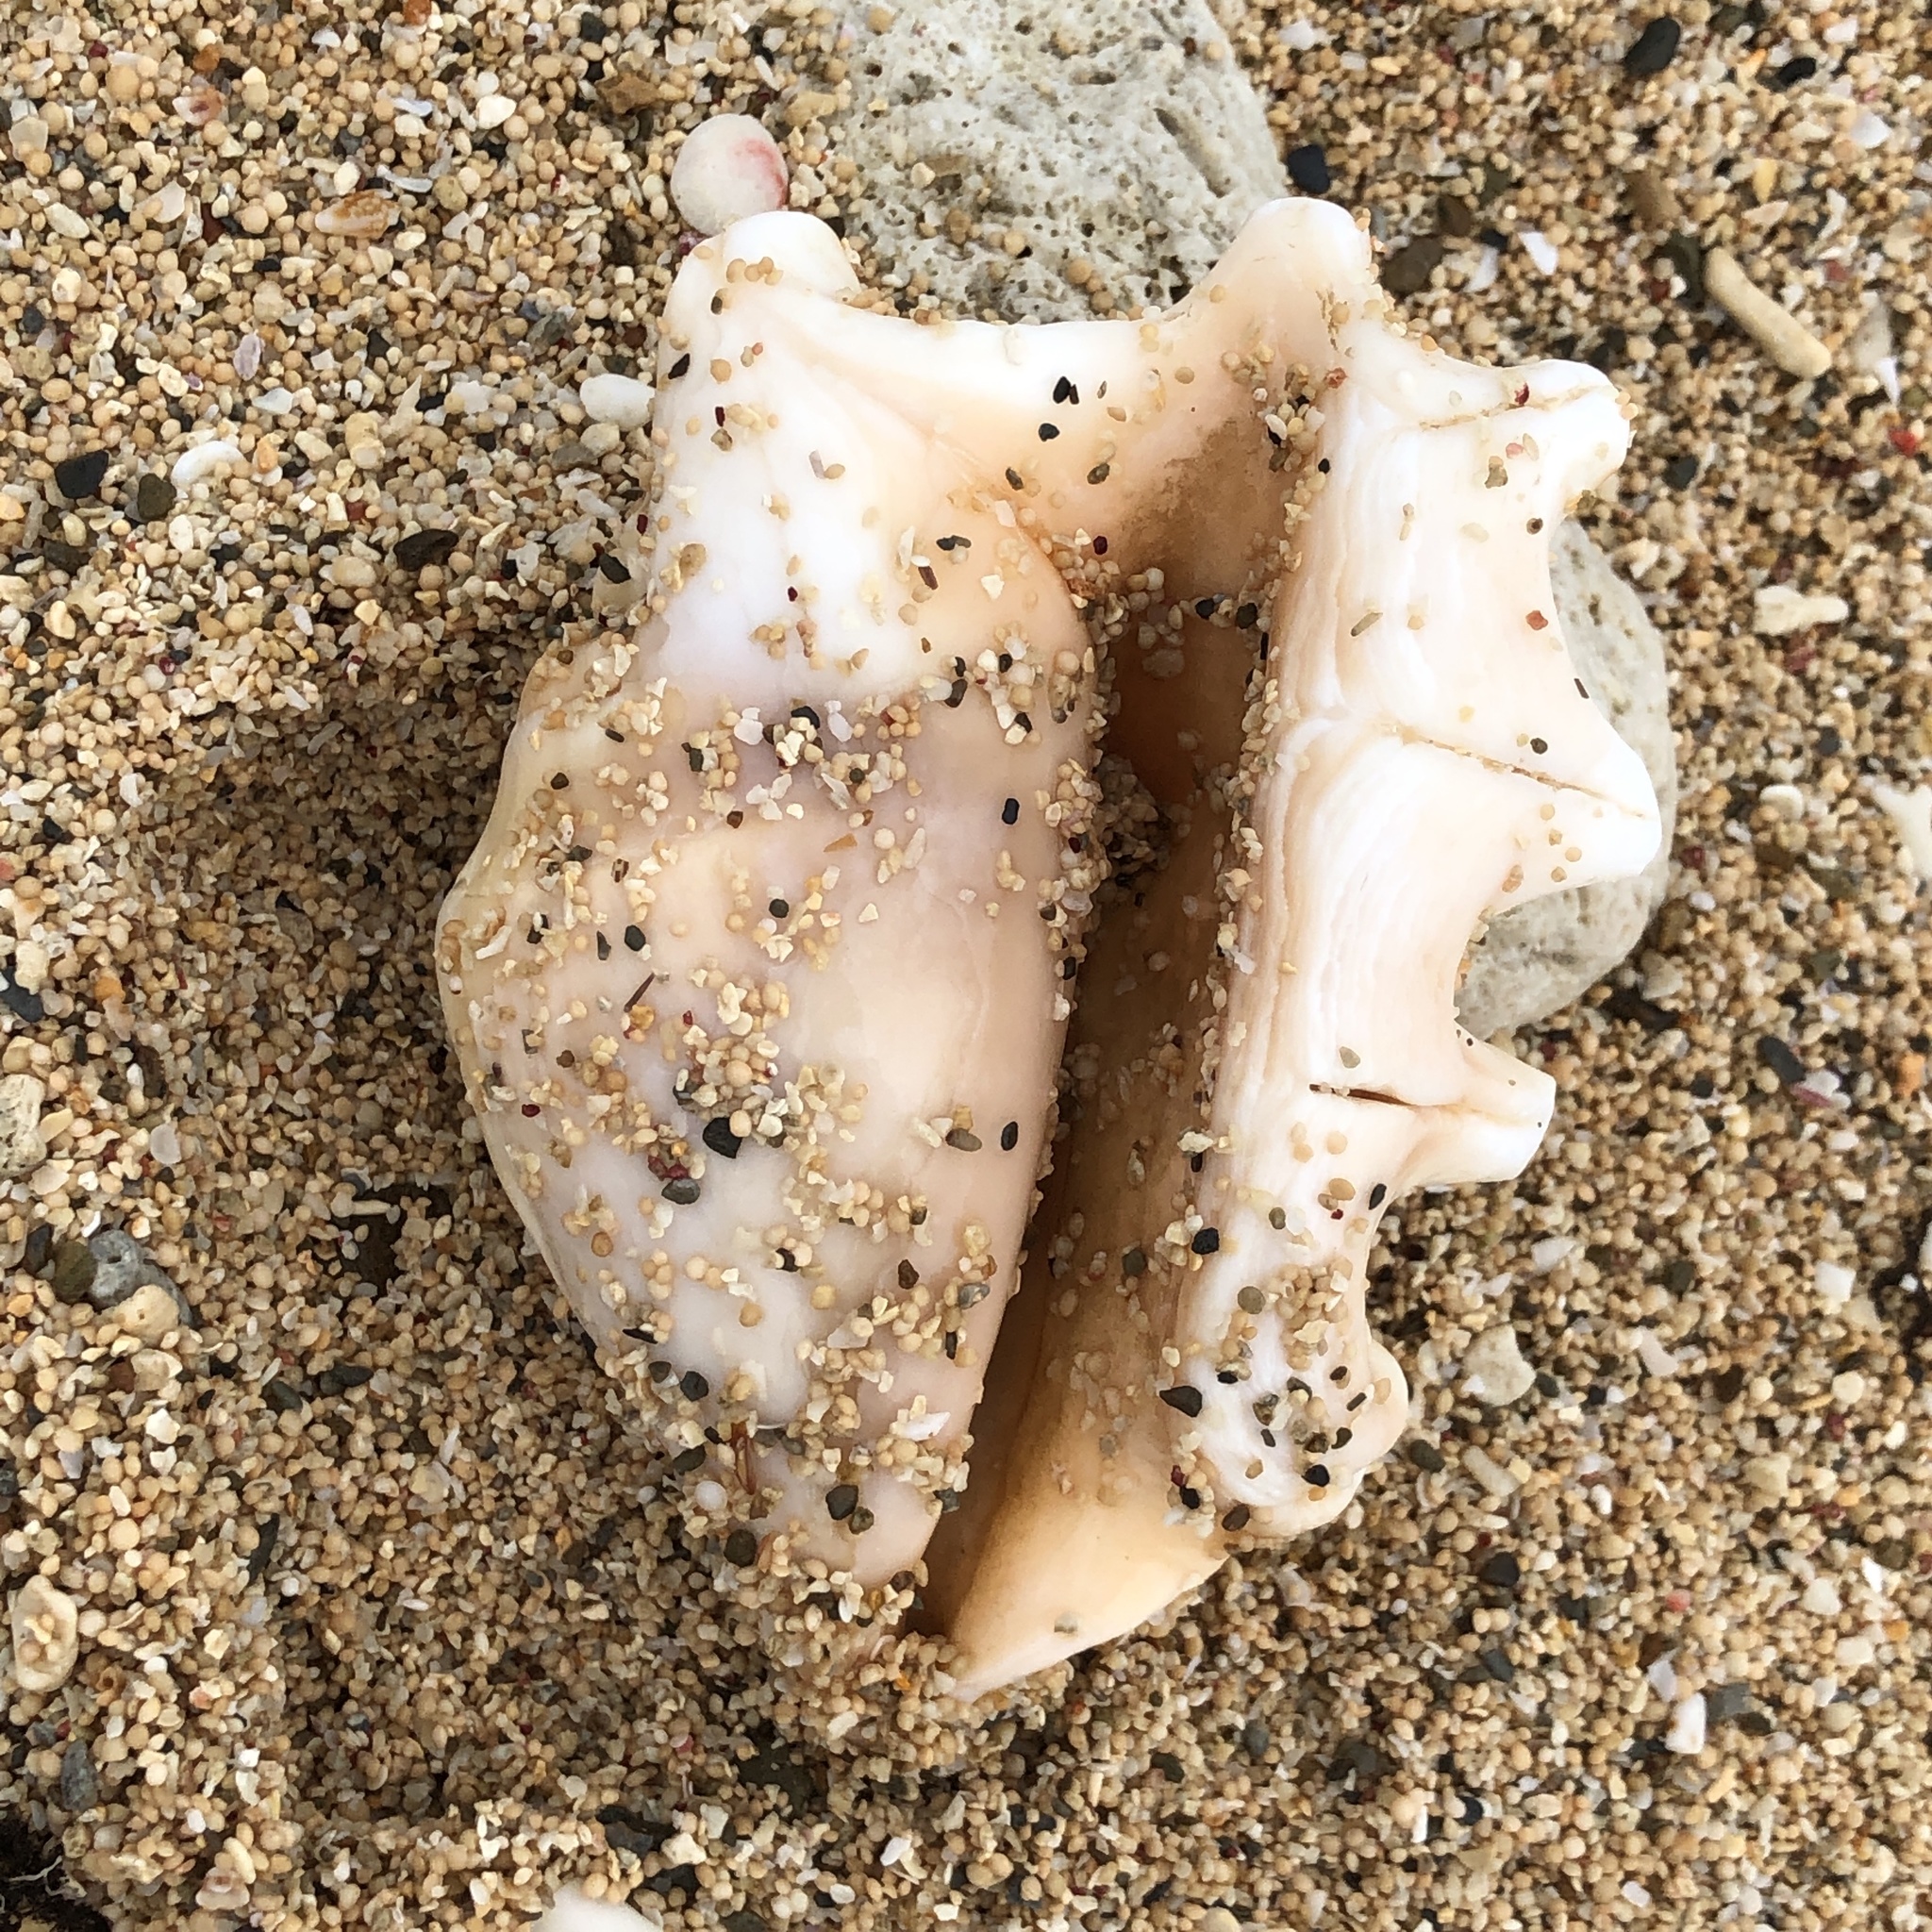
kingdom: Animalia
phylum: Mollusca
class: Gastropoda
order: Littorinimorpha
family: Strombidae
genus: Lambis
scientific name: Lambis lambis
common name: Common spider conch
